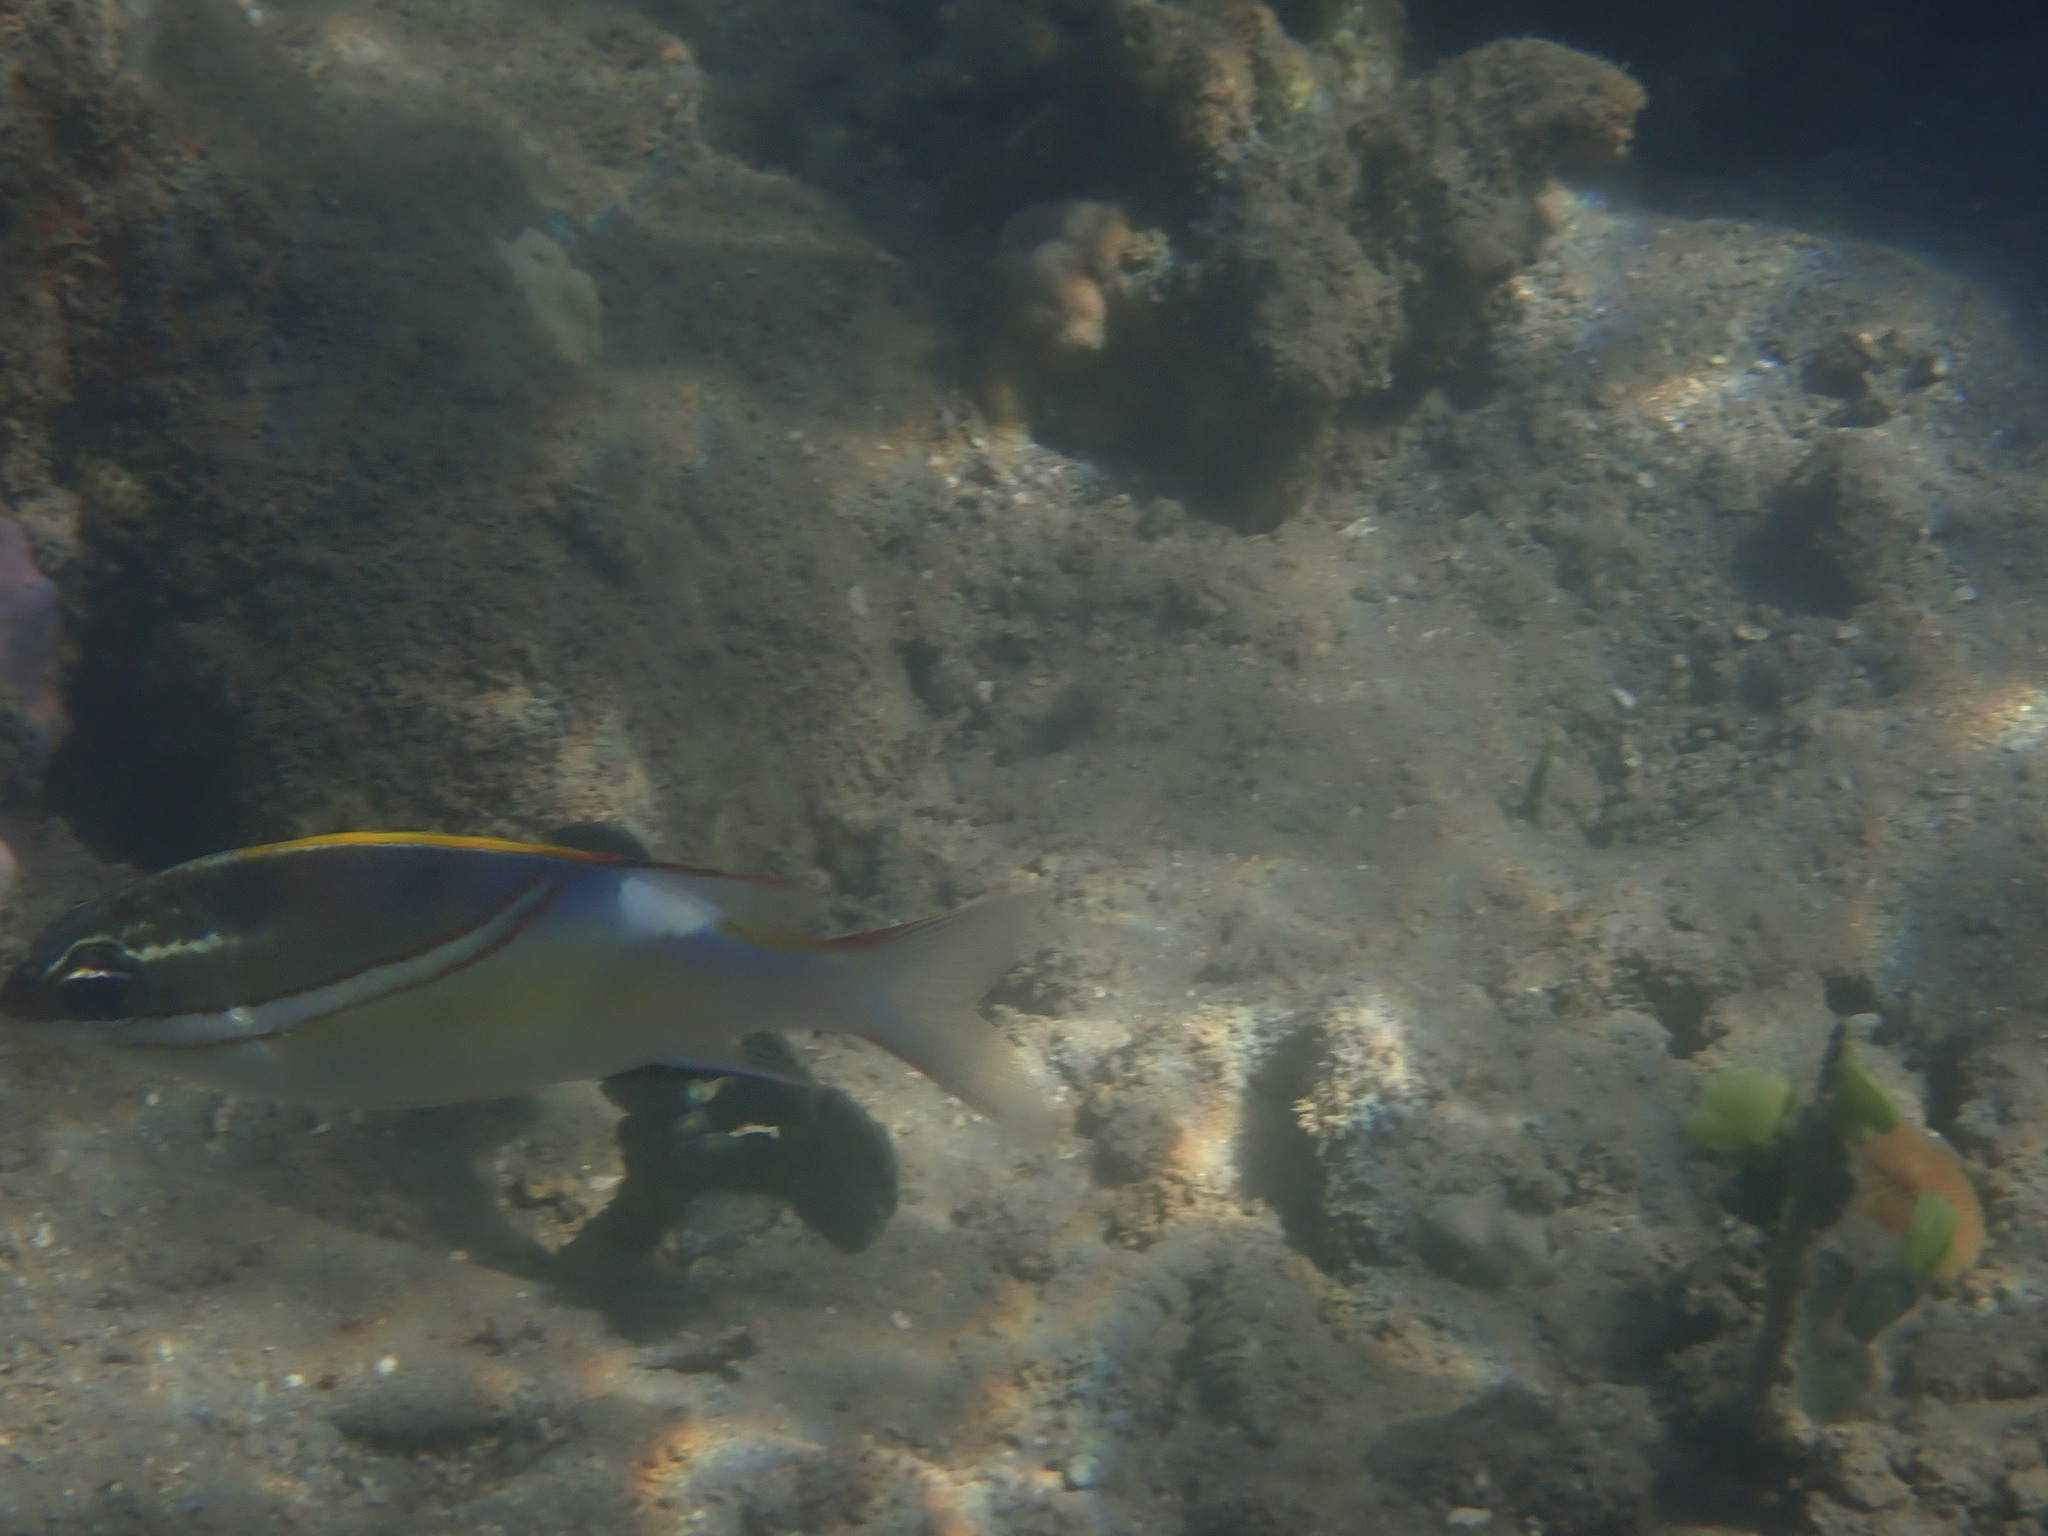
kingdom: Animalia
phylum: Chordata
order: Perciformes
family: Nemipteridae
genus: Scolopsis
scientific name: Scolopsis bilineata
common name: Two-lined monocle bream
